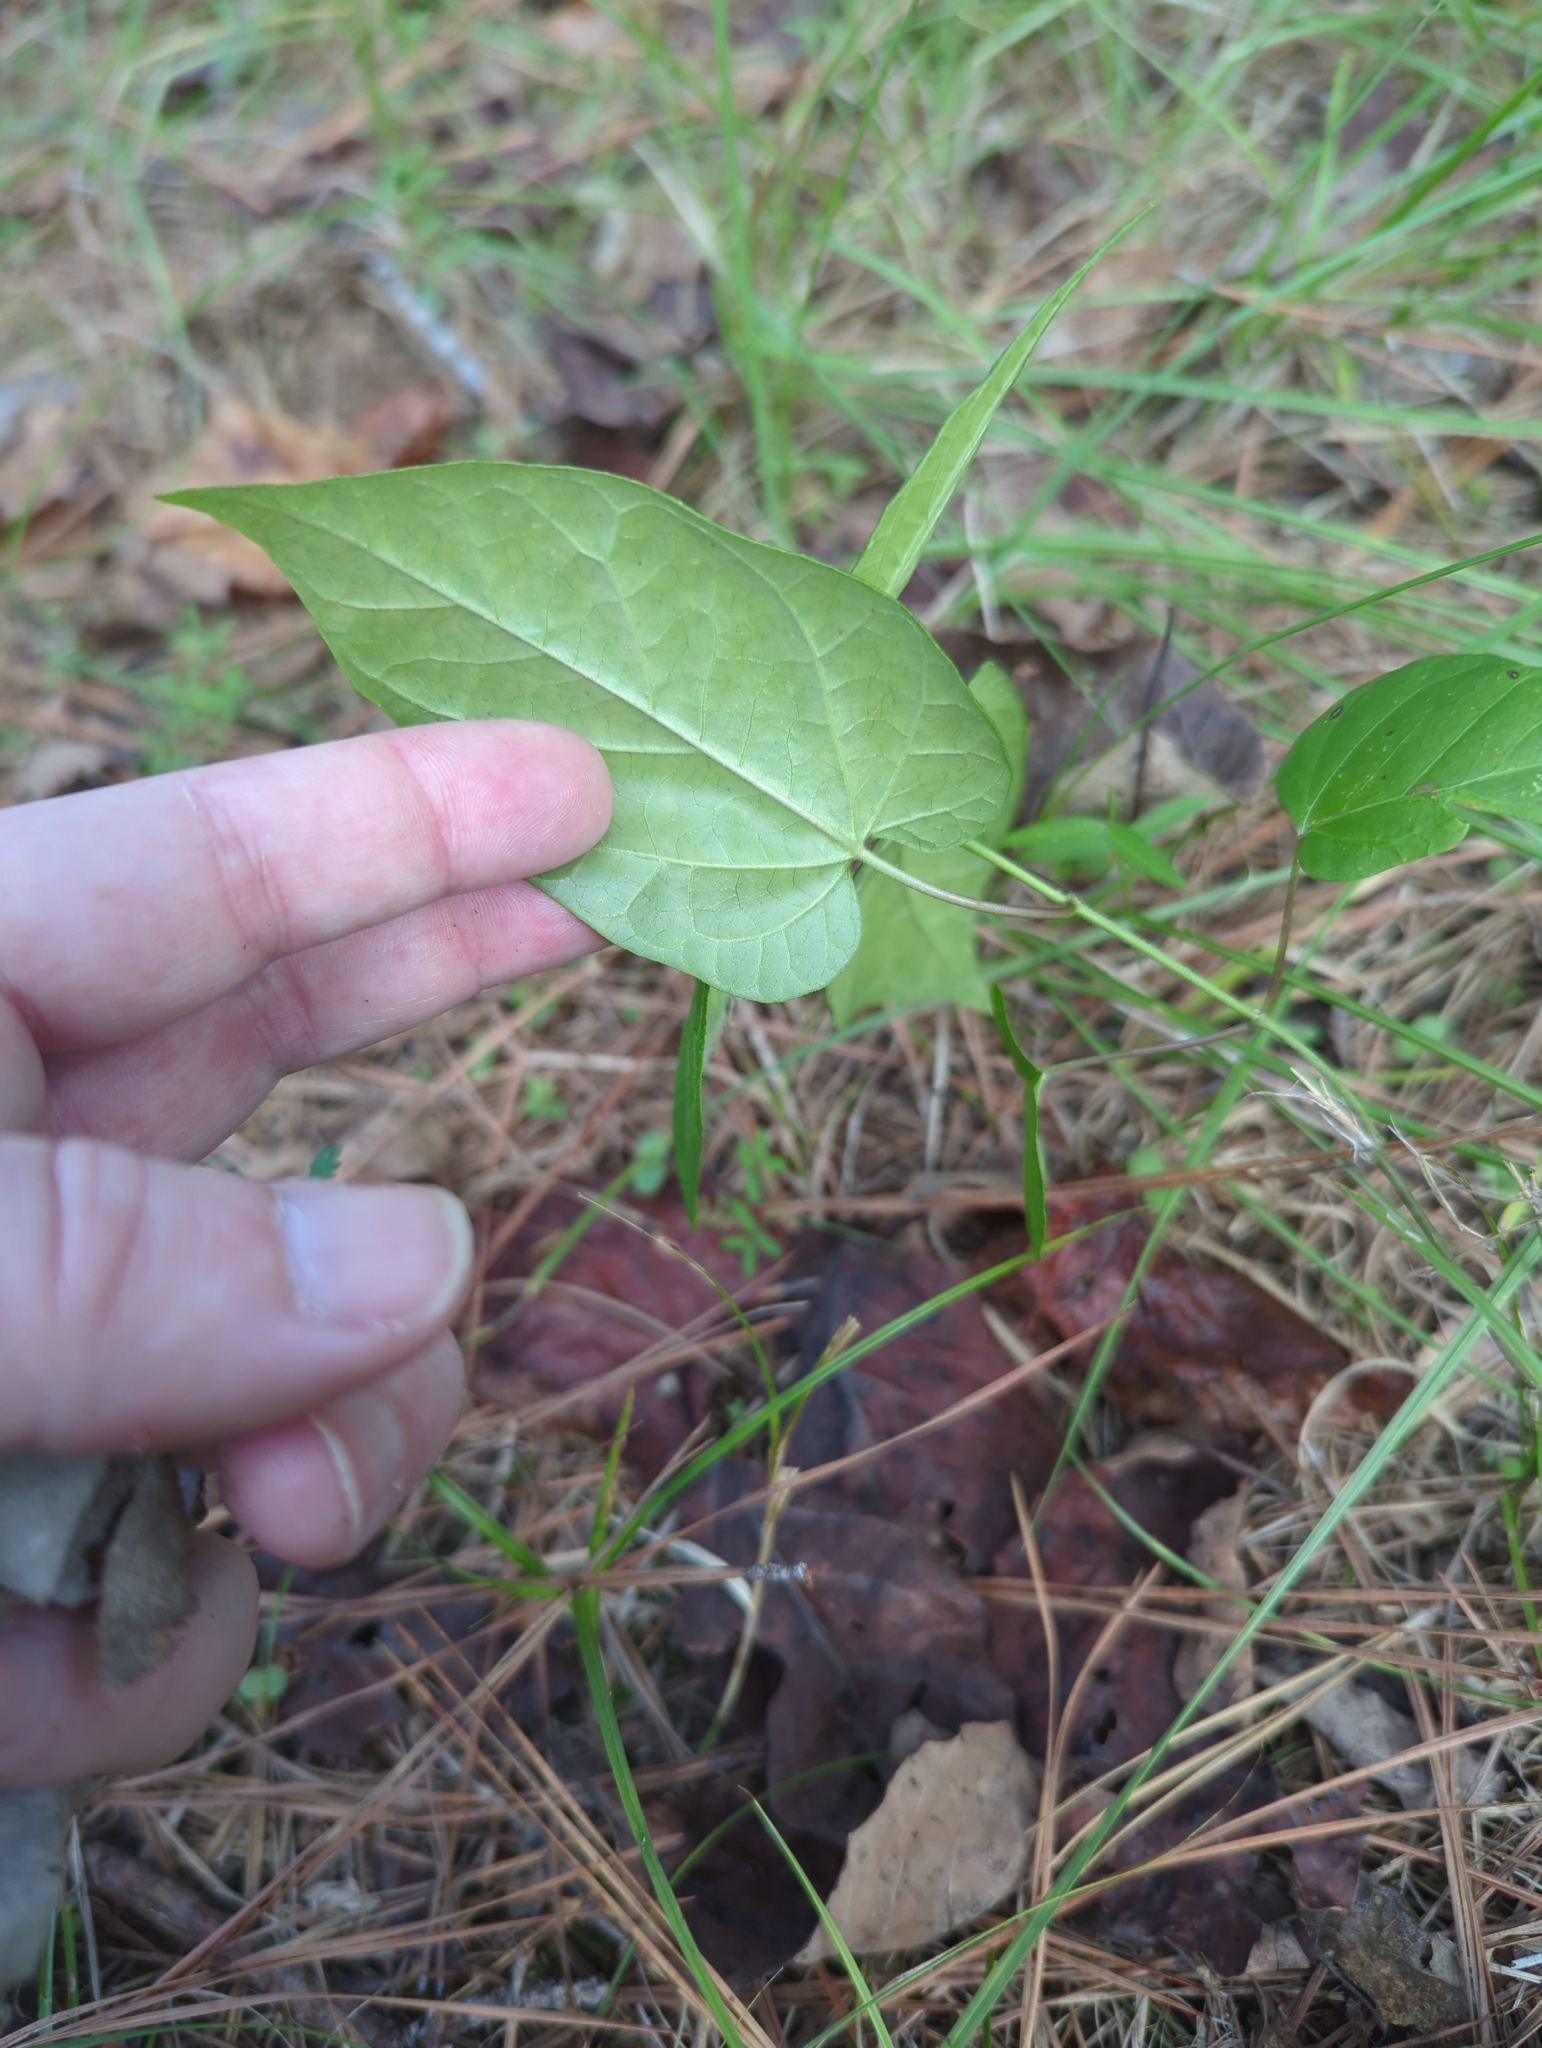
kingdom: Plantae
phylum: Tracheophyta
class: Magnoliopsida
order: Gentianales
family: Apocynaceae
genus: Gonolobus
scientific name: Gonolobus suberosus
